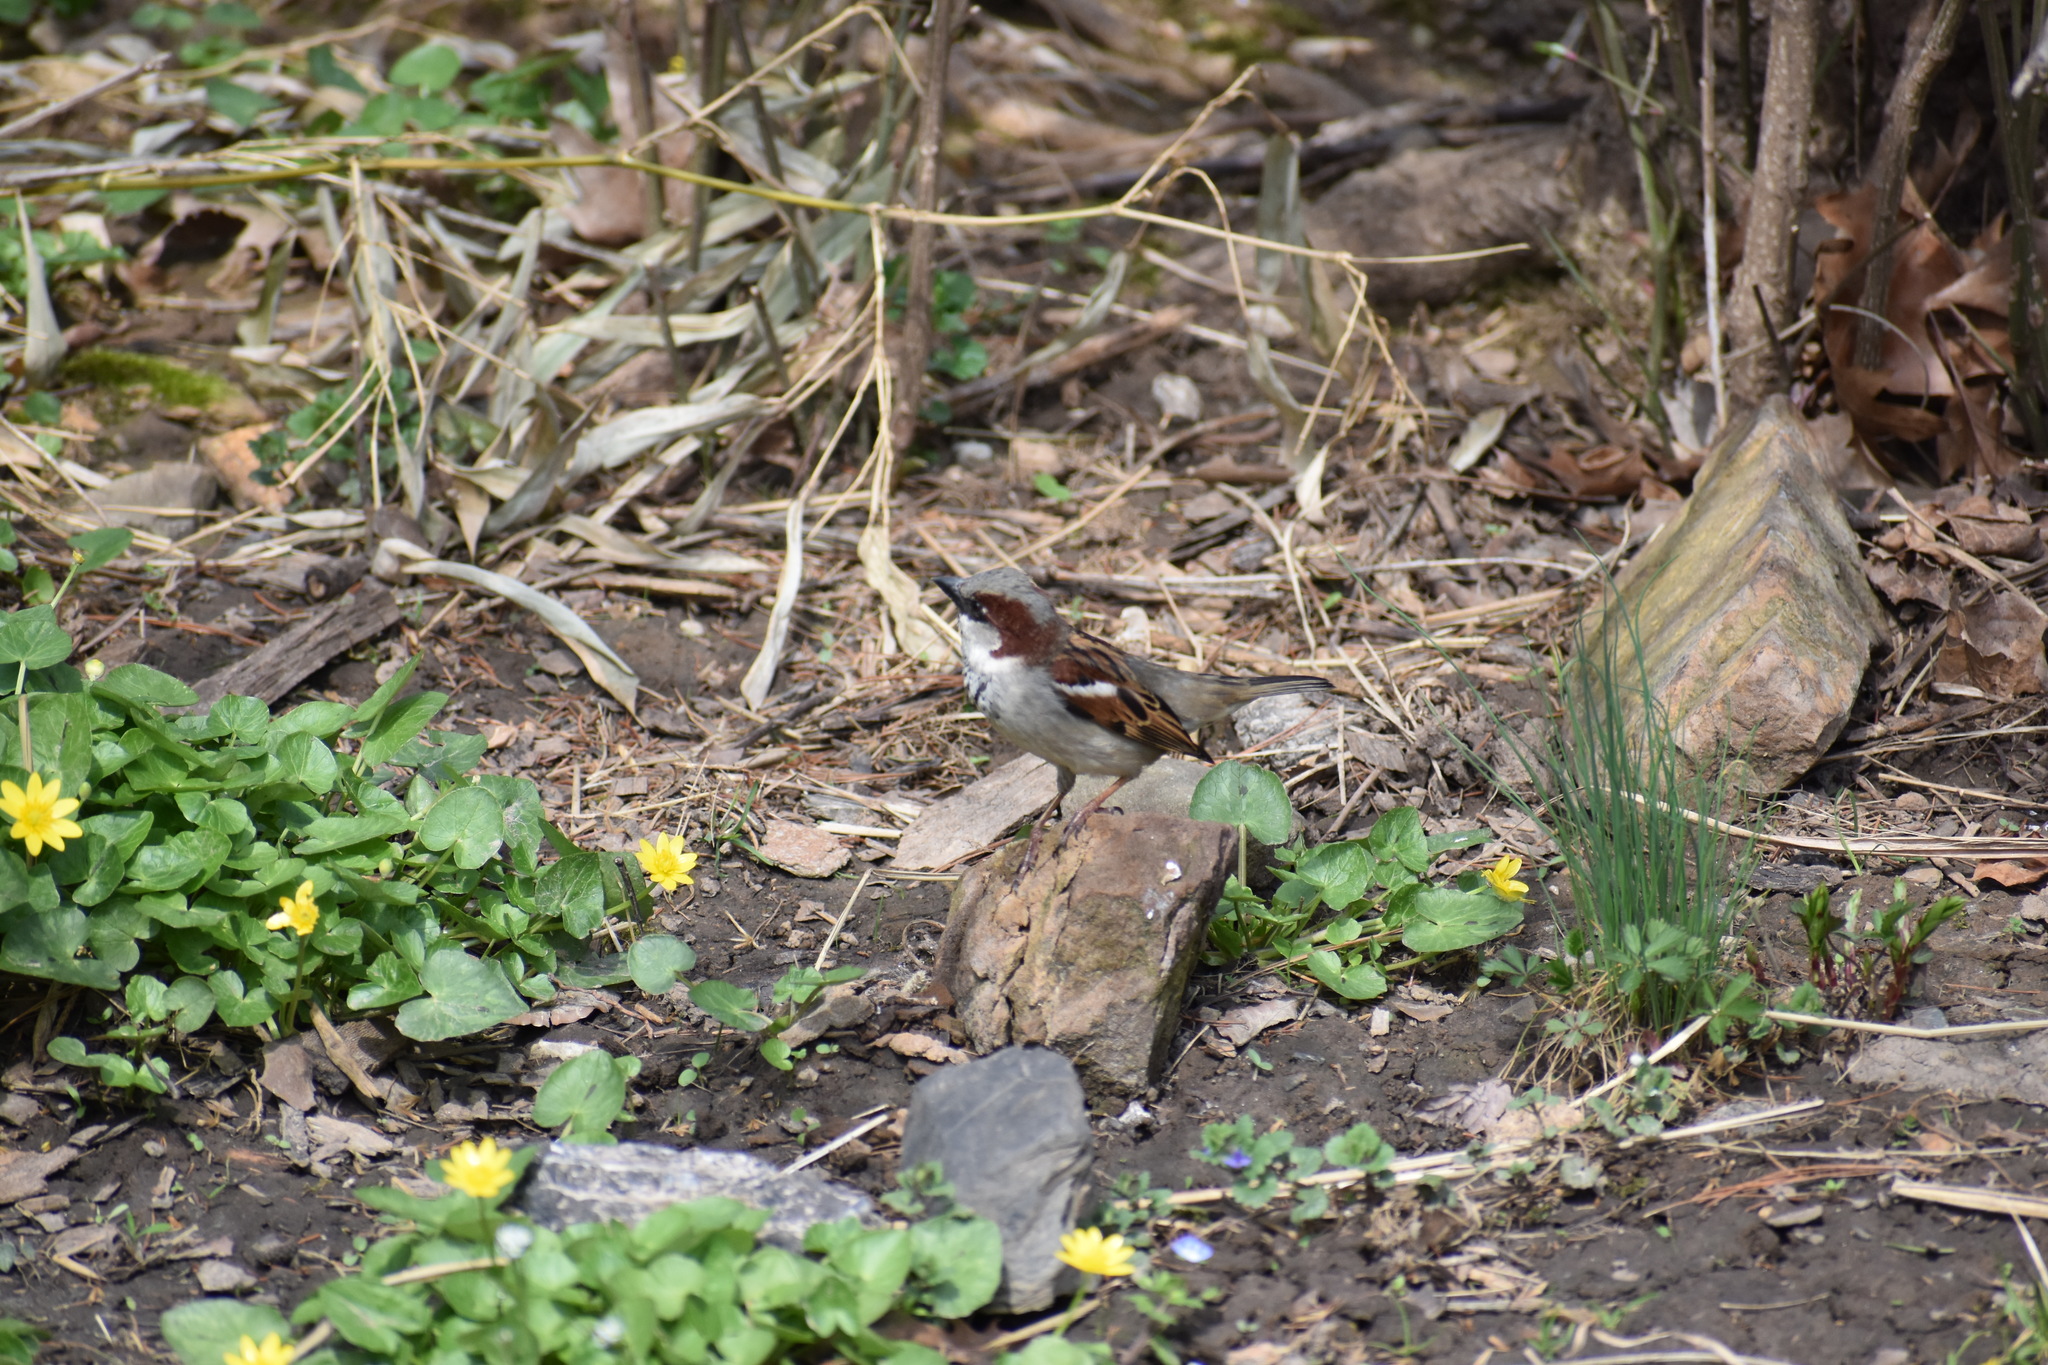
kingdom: Animalia
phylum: Chordata
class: Aves
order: Passeriformes
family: Passeridae
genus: Passer
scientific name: Passer domesticus
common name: House sparrow
